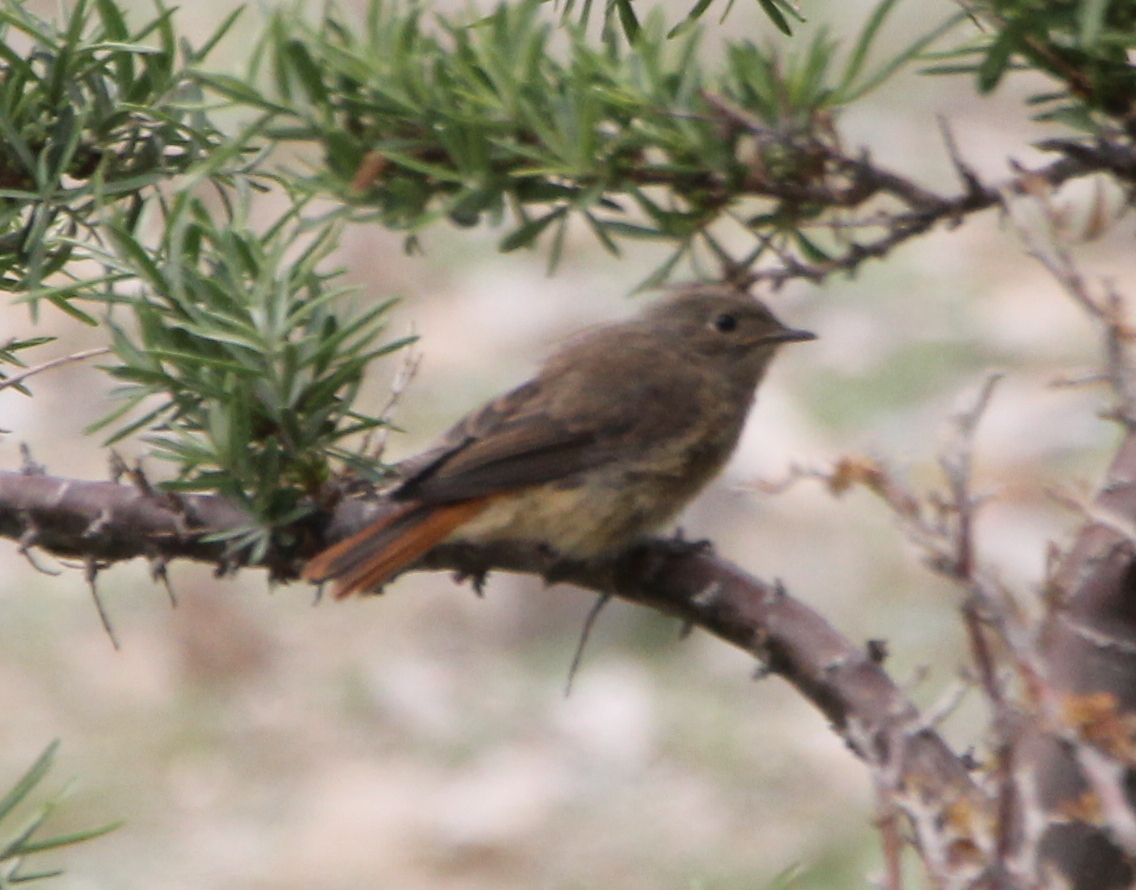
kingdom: Animalia
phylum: Chordata
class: Aves
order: Passeriformes
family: Muscicapidae
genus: Phoenicurus
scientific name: Phoenicurus ochruros
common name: Black redstart
